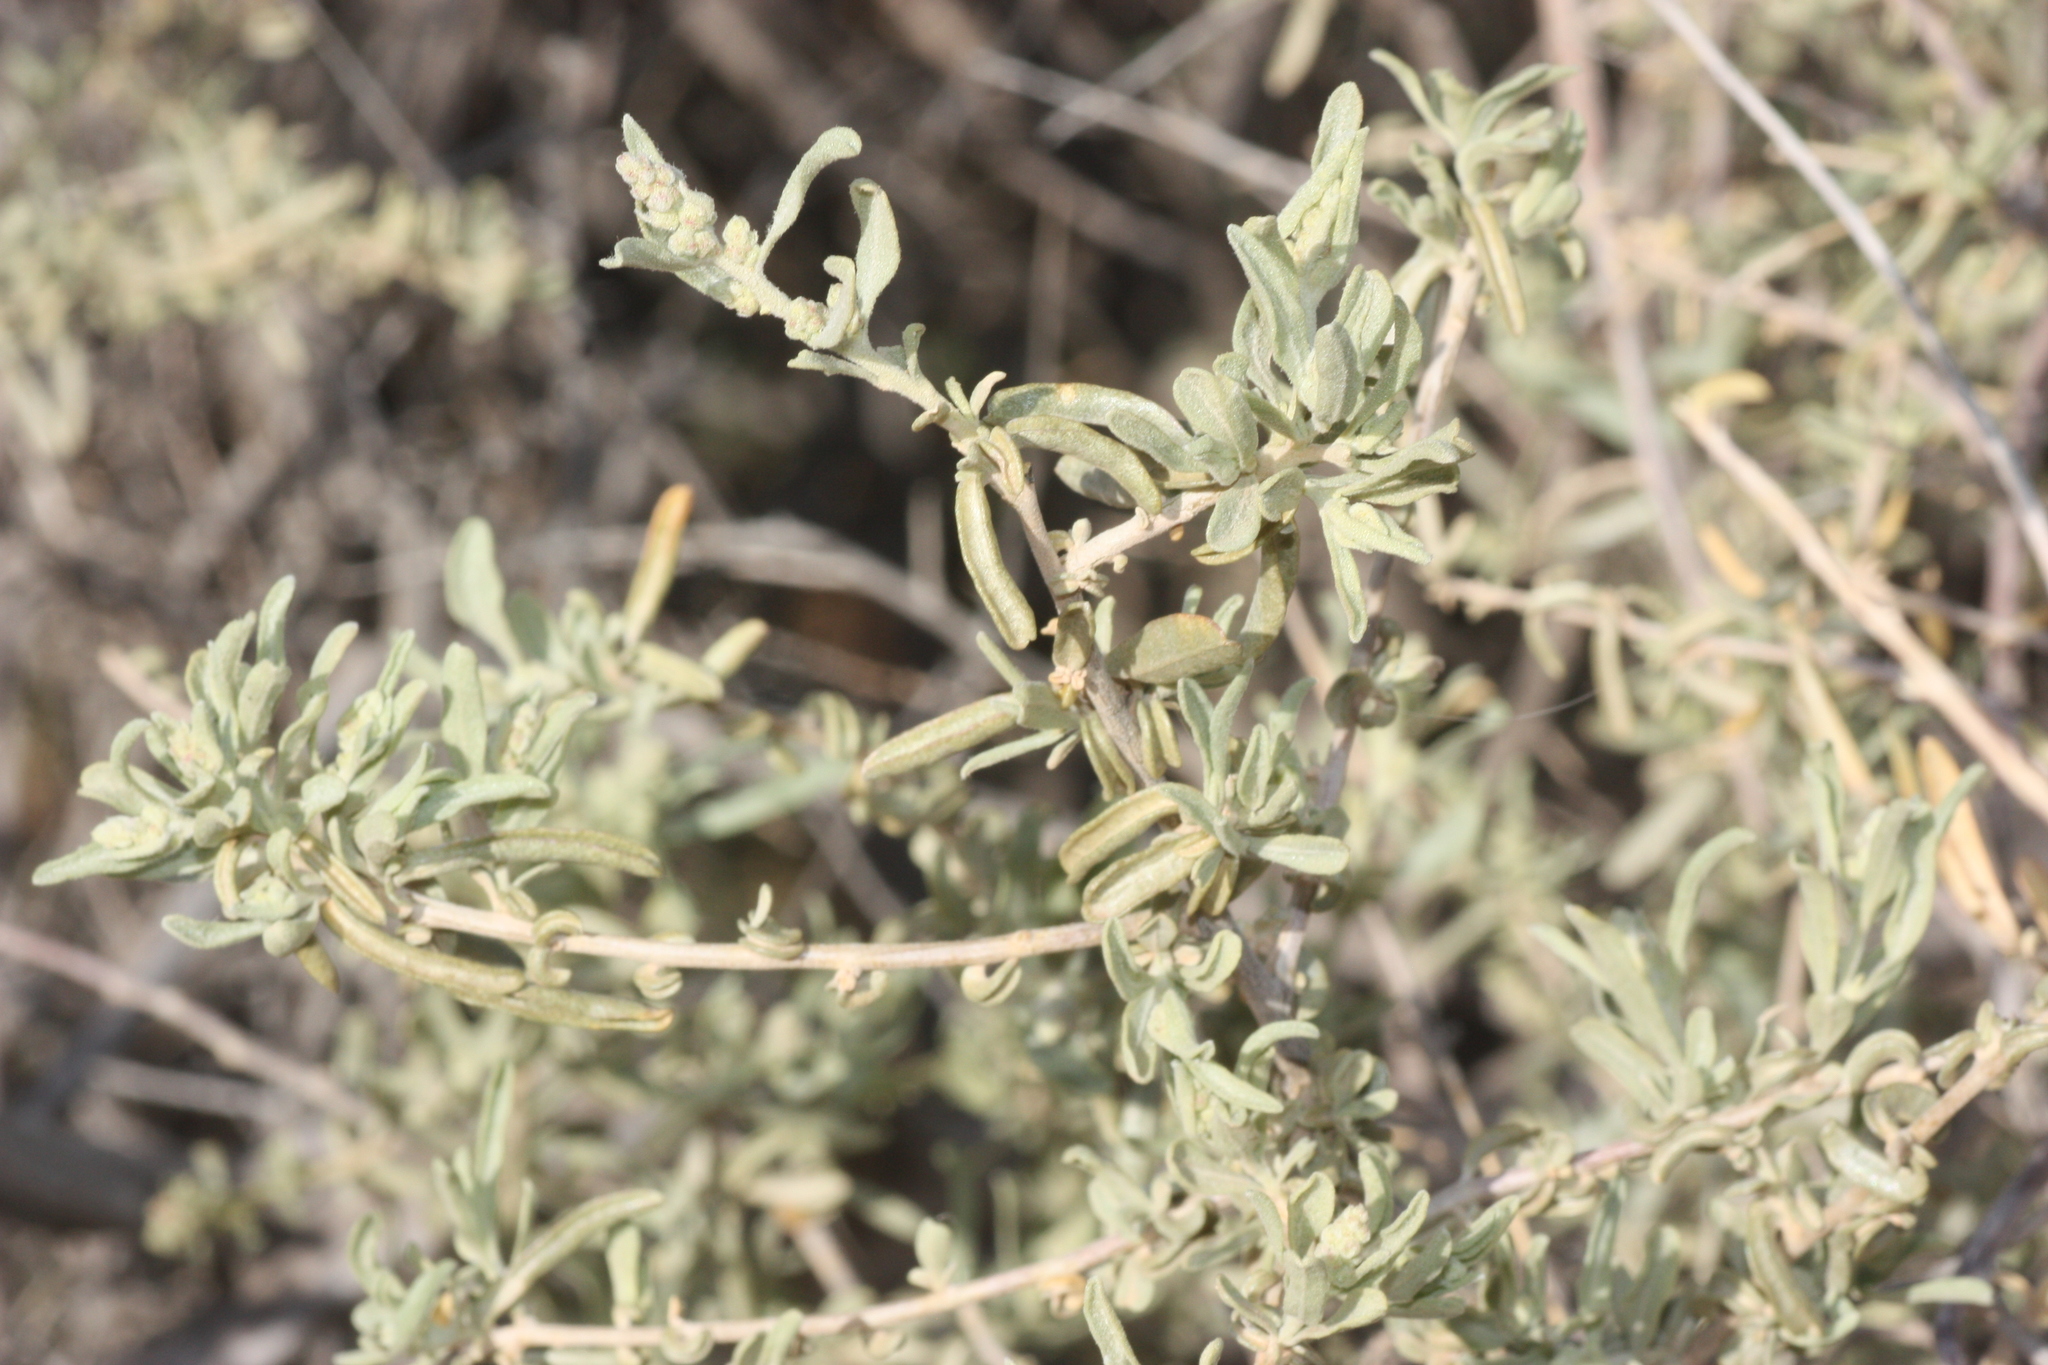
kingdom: Plantae
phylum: Tracheophyta
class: Magnoliopsida
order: Caryophyllales
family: Amaranthaceae
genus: Atriplex
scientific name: Atriplex canescens
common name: Four-wing saltbush
